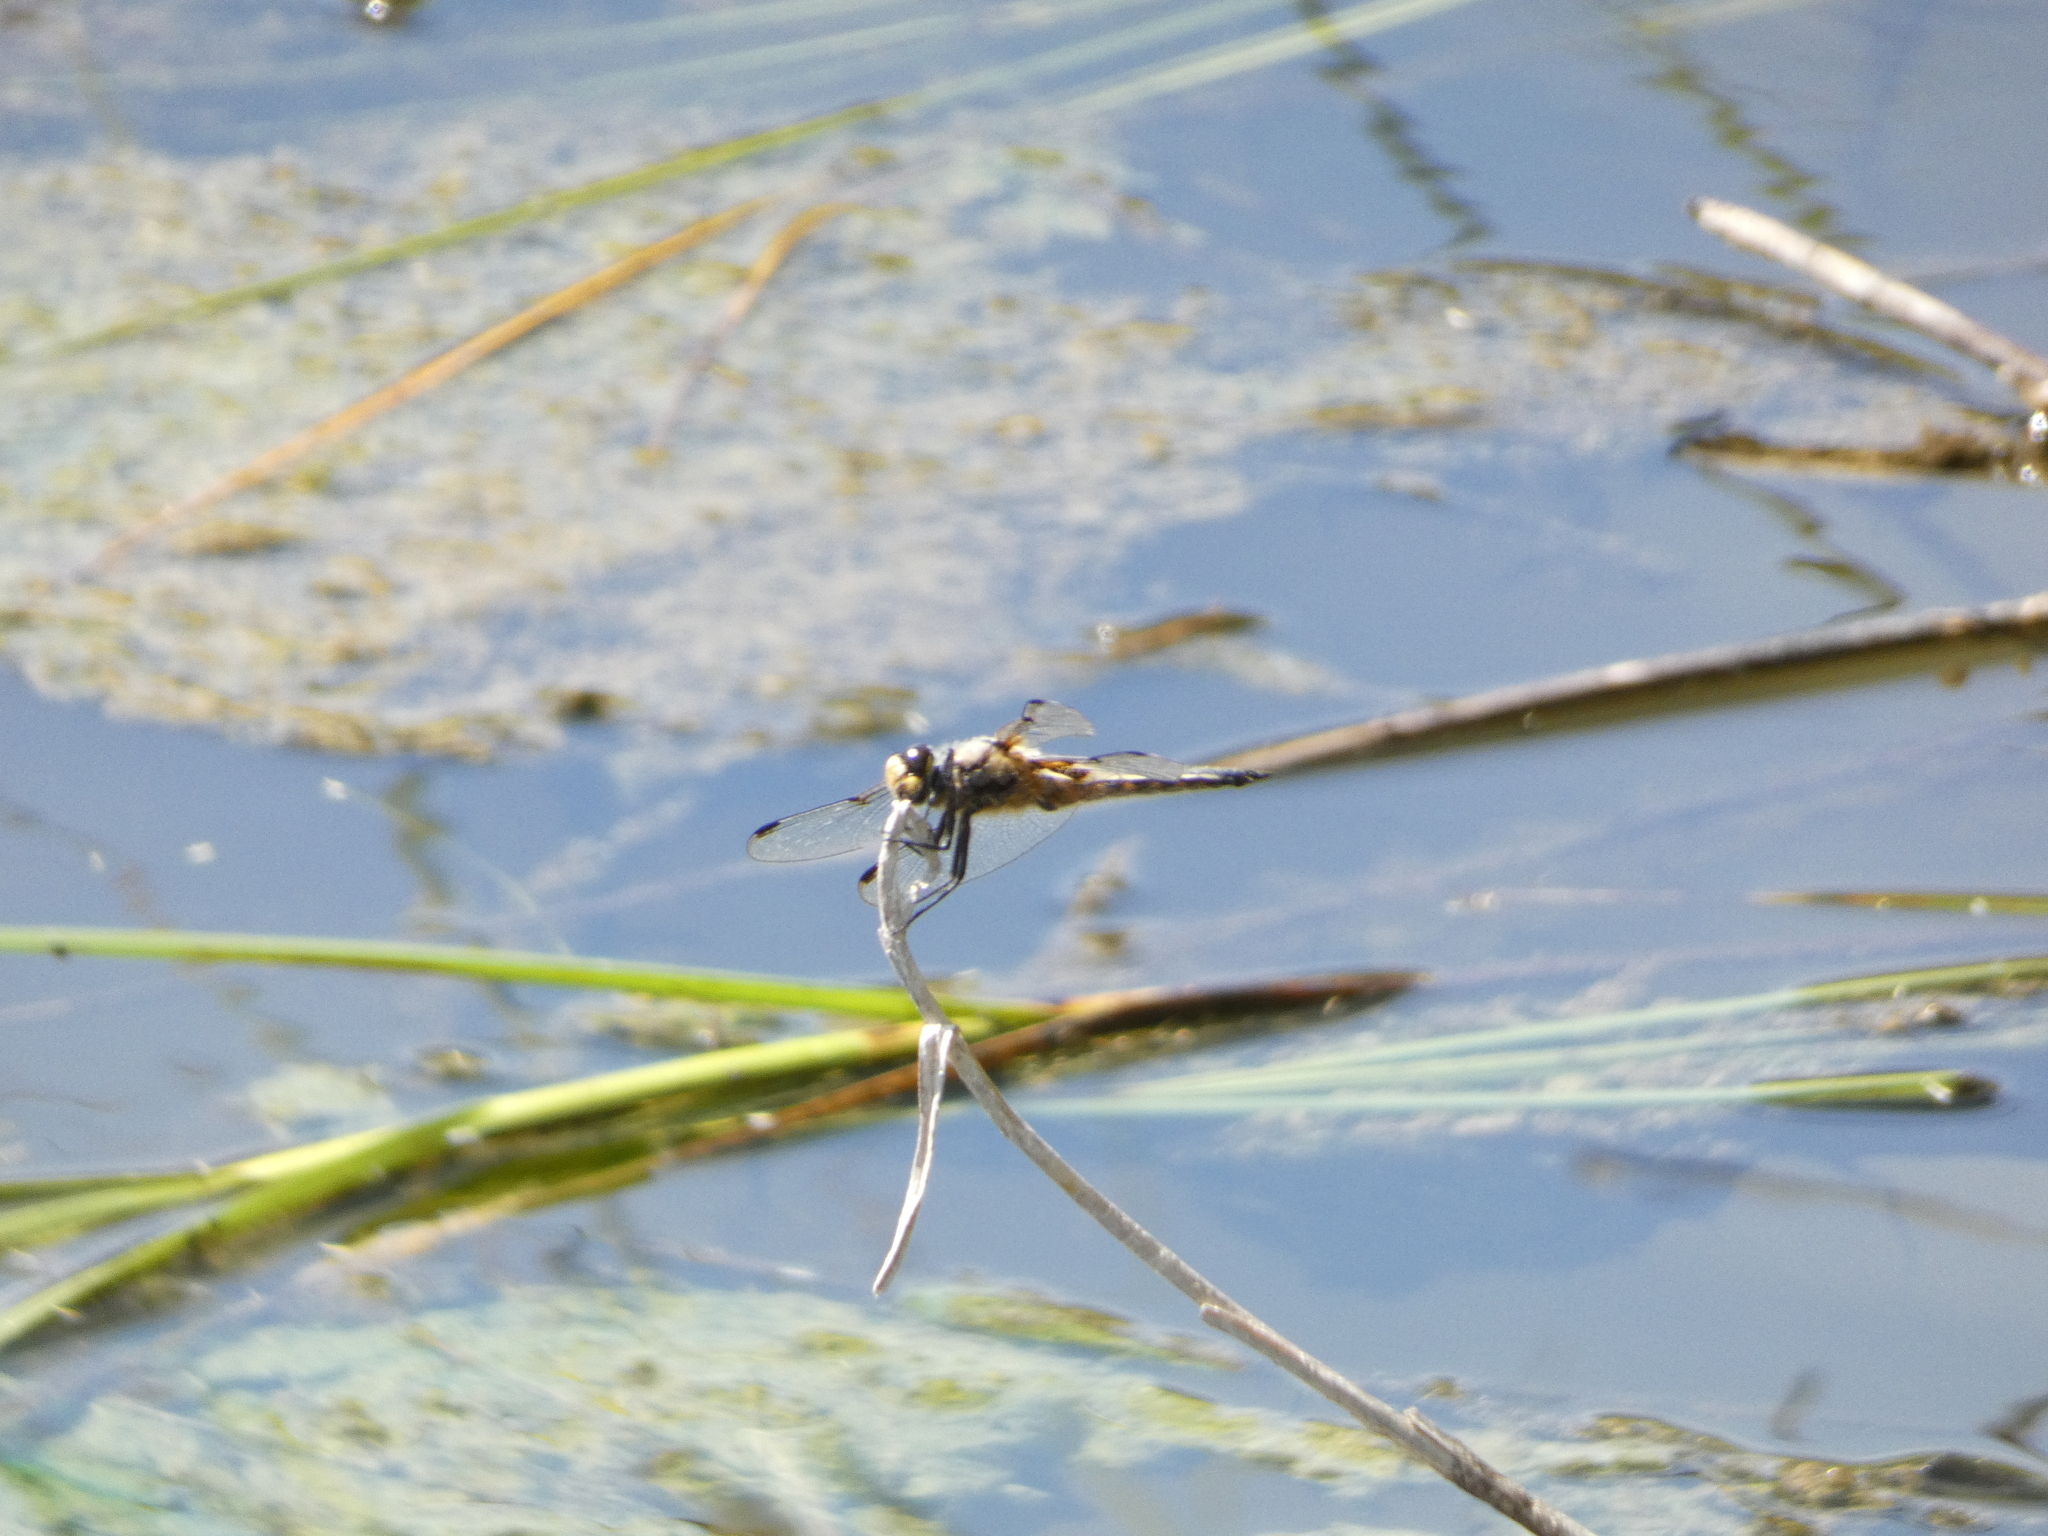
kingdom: Animalia
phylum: Arthropoda
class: Insecta
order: Odonata
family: Libellulidae
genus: Libellula
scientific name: Libellula quadrimaculata
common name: Four-spotted chaser
